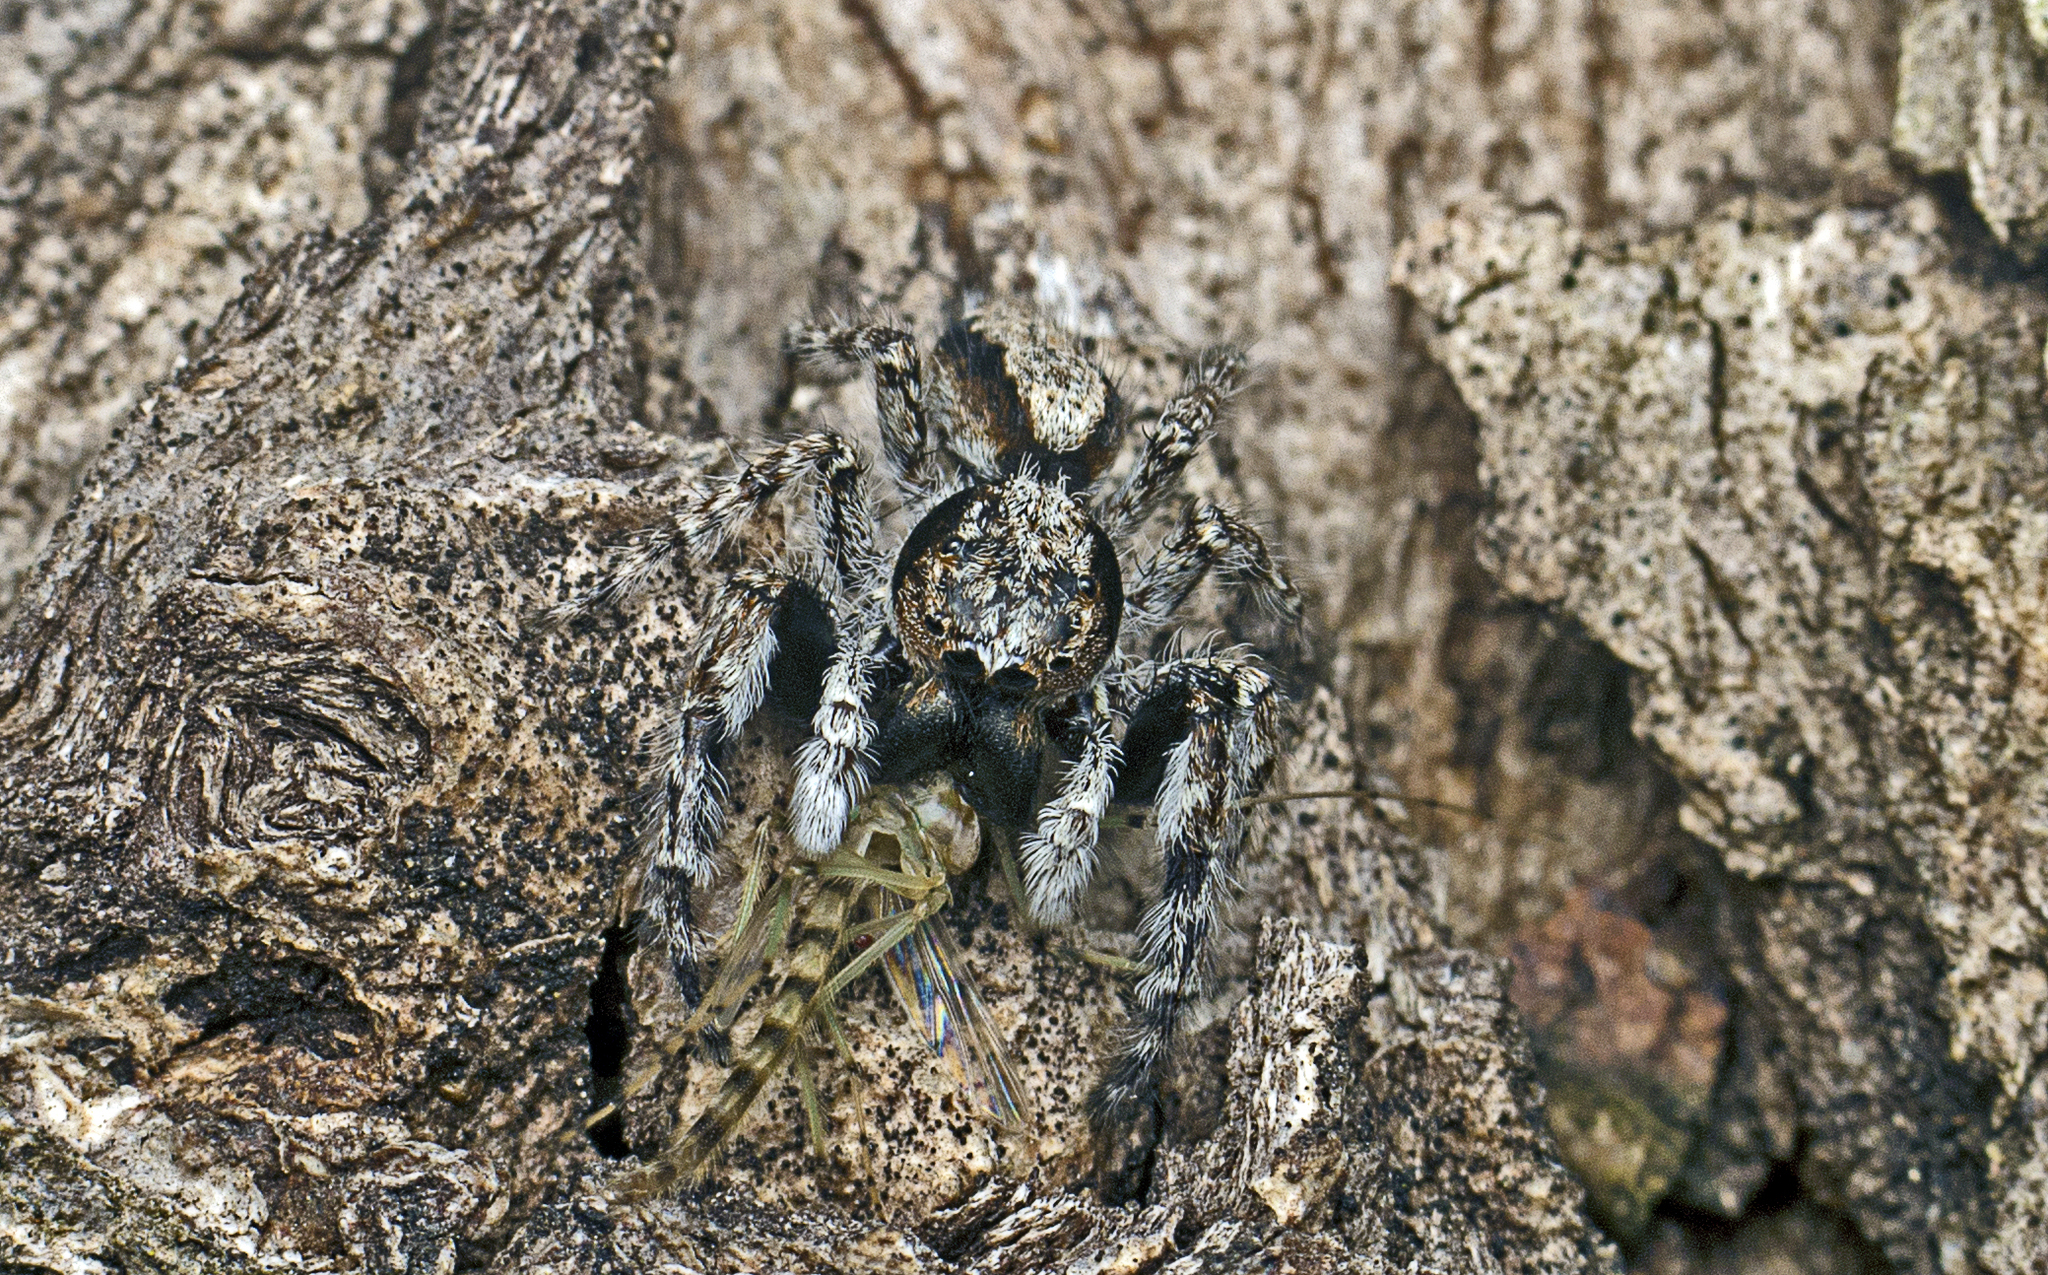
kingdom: Animalia
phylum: Arthropoda
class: Arachnida
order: Araneae
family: Salticidae
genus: Clynotis
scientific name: Clynotis severus
